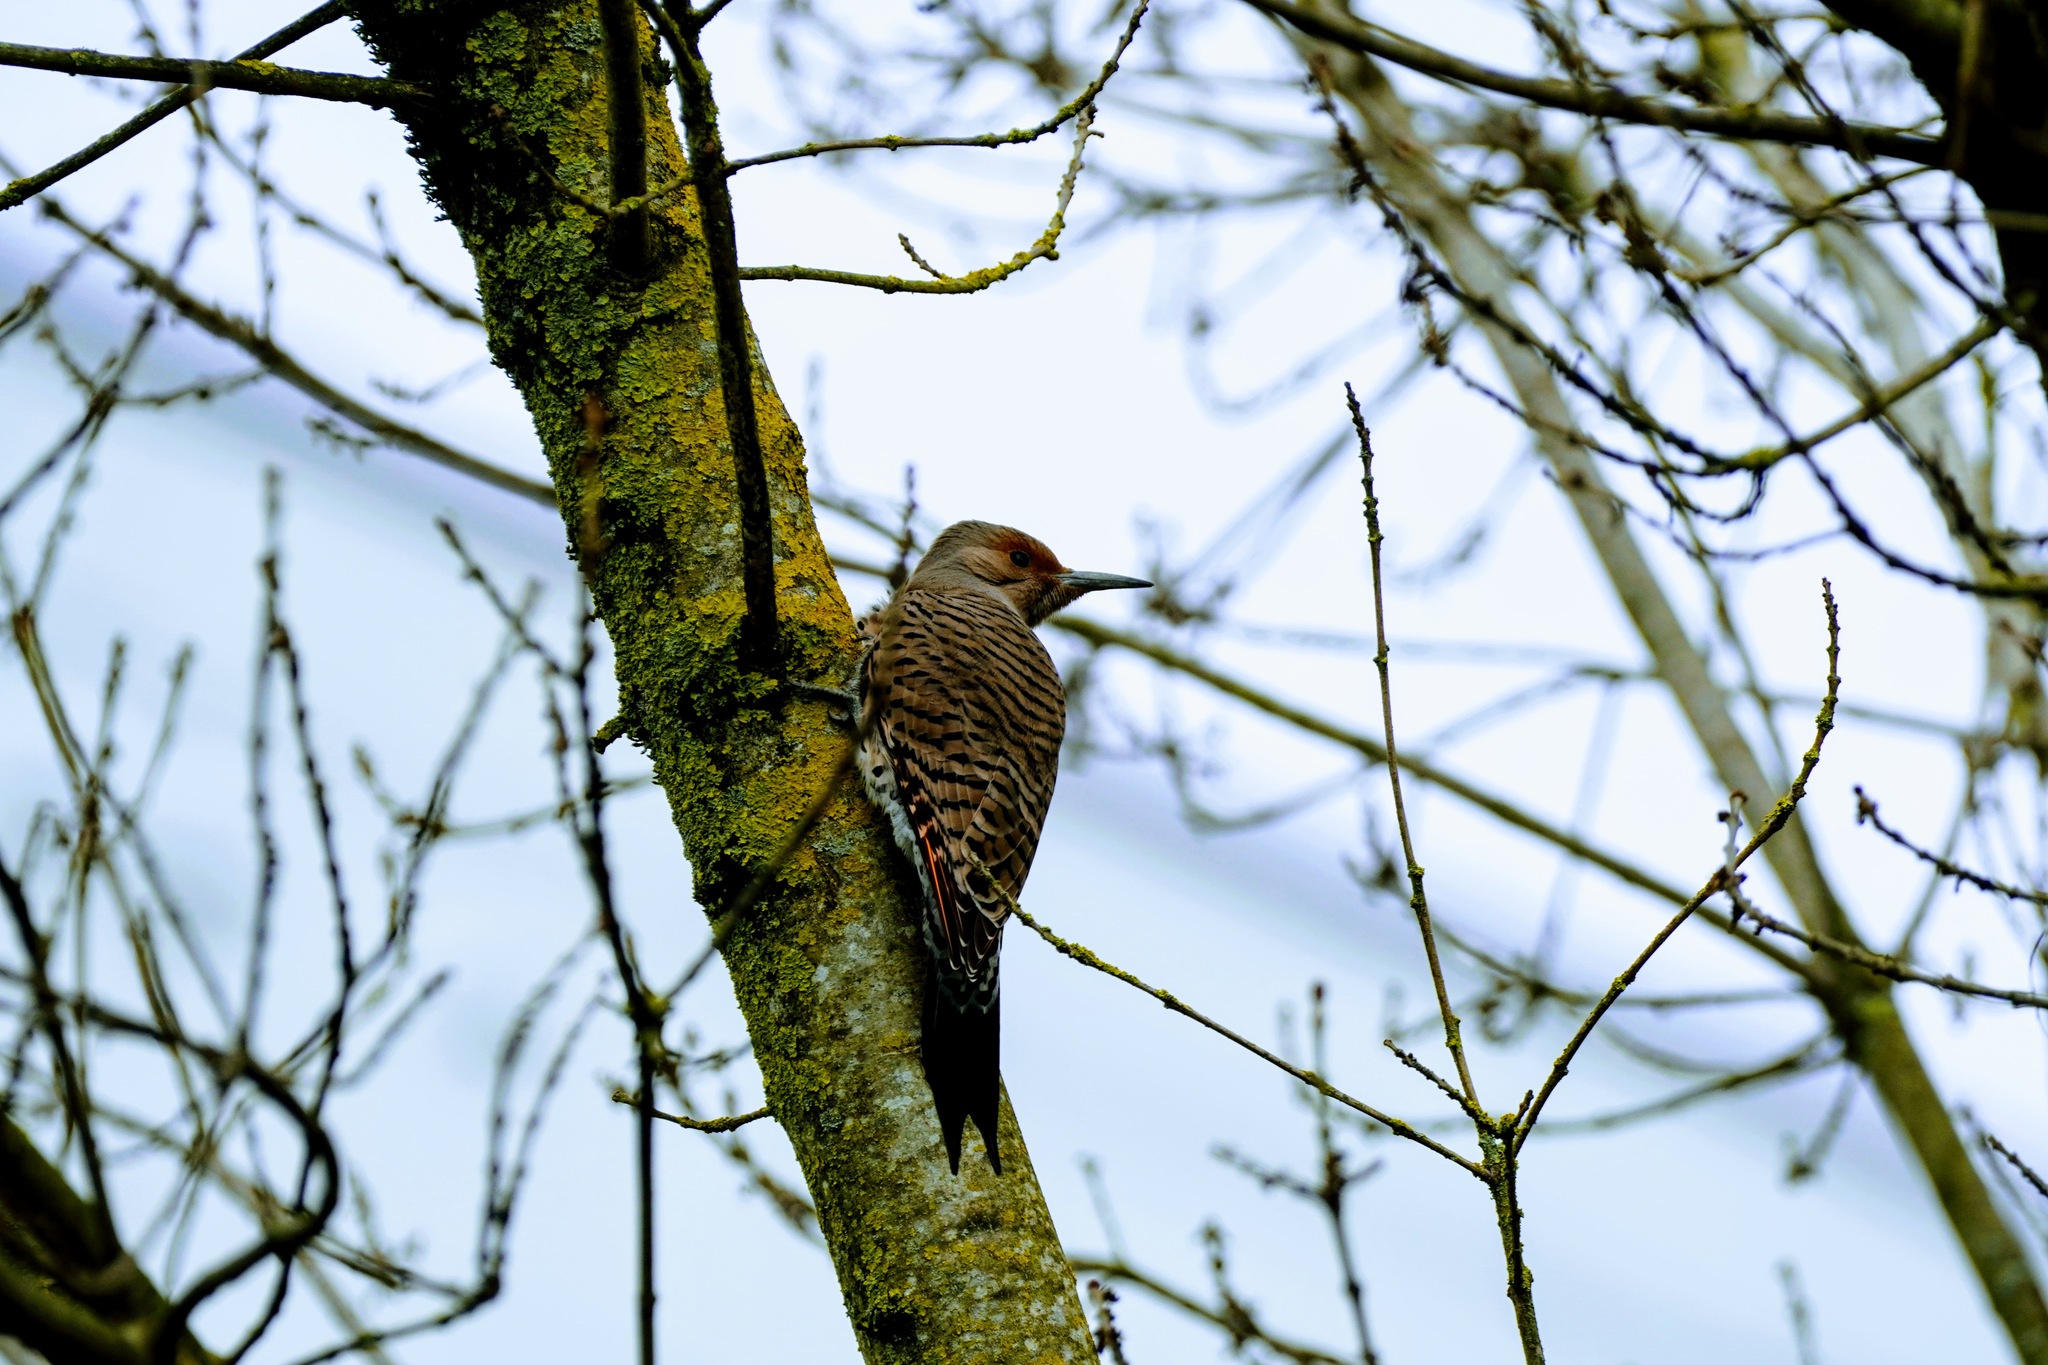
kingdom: Animalia
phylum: Chordata
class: Aves
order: Piciformes
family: Picidae
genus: Colaptes
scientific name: Colaptes auratus
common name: Northern flicker
